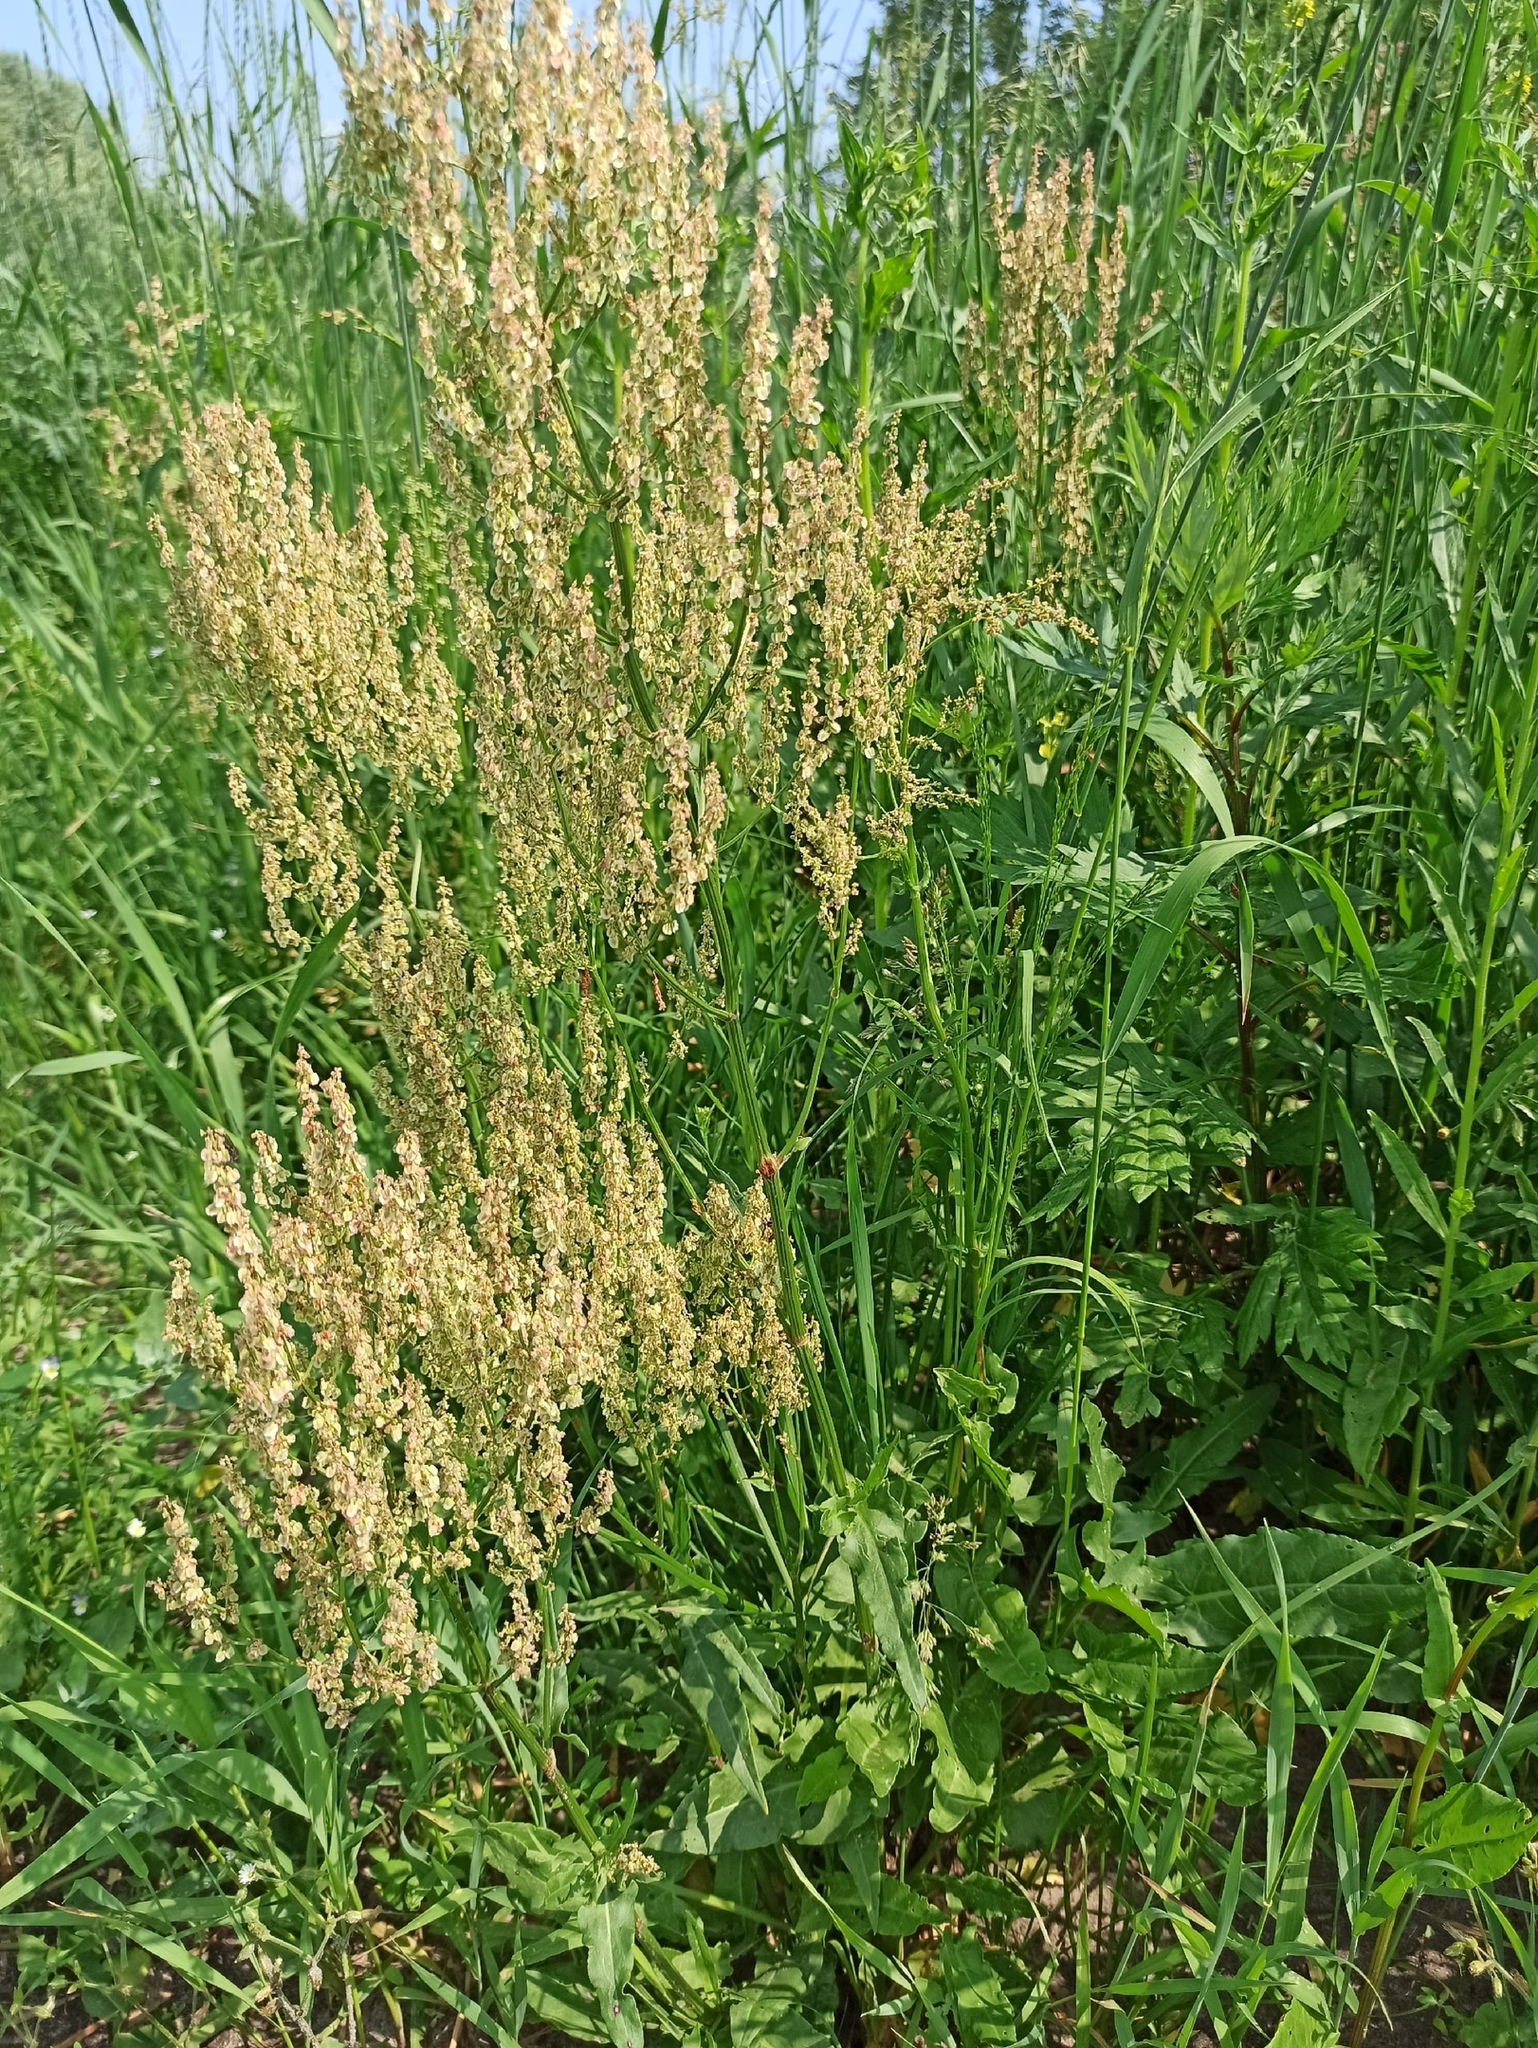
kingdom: Plantae
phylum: Tracheophyta
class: Magnoliopsida
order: Caryophyllales
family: Polygonaceae
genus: Rumex
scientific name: Rumex thyrsiflorus
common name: Garden sorrel
